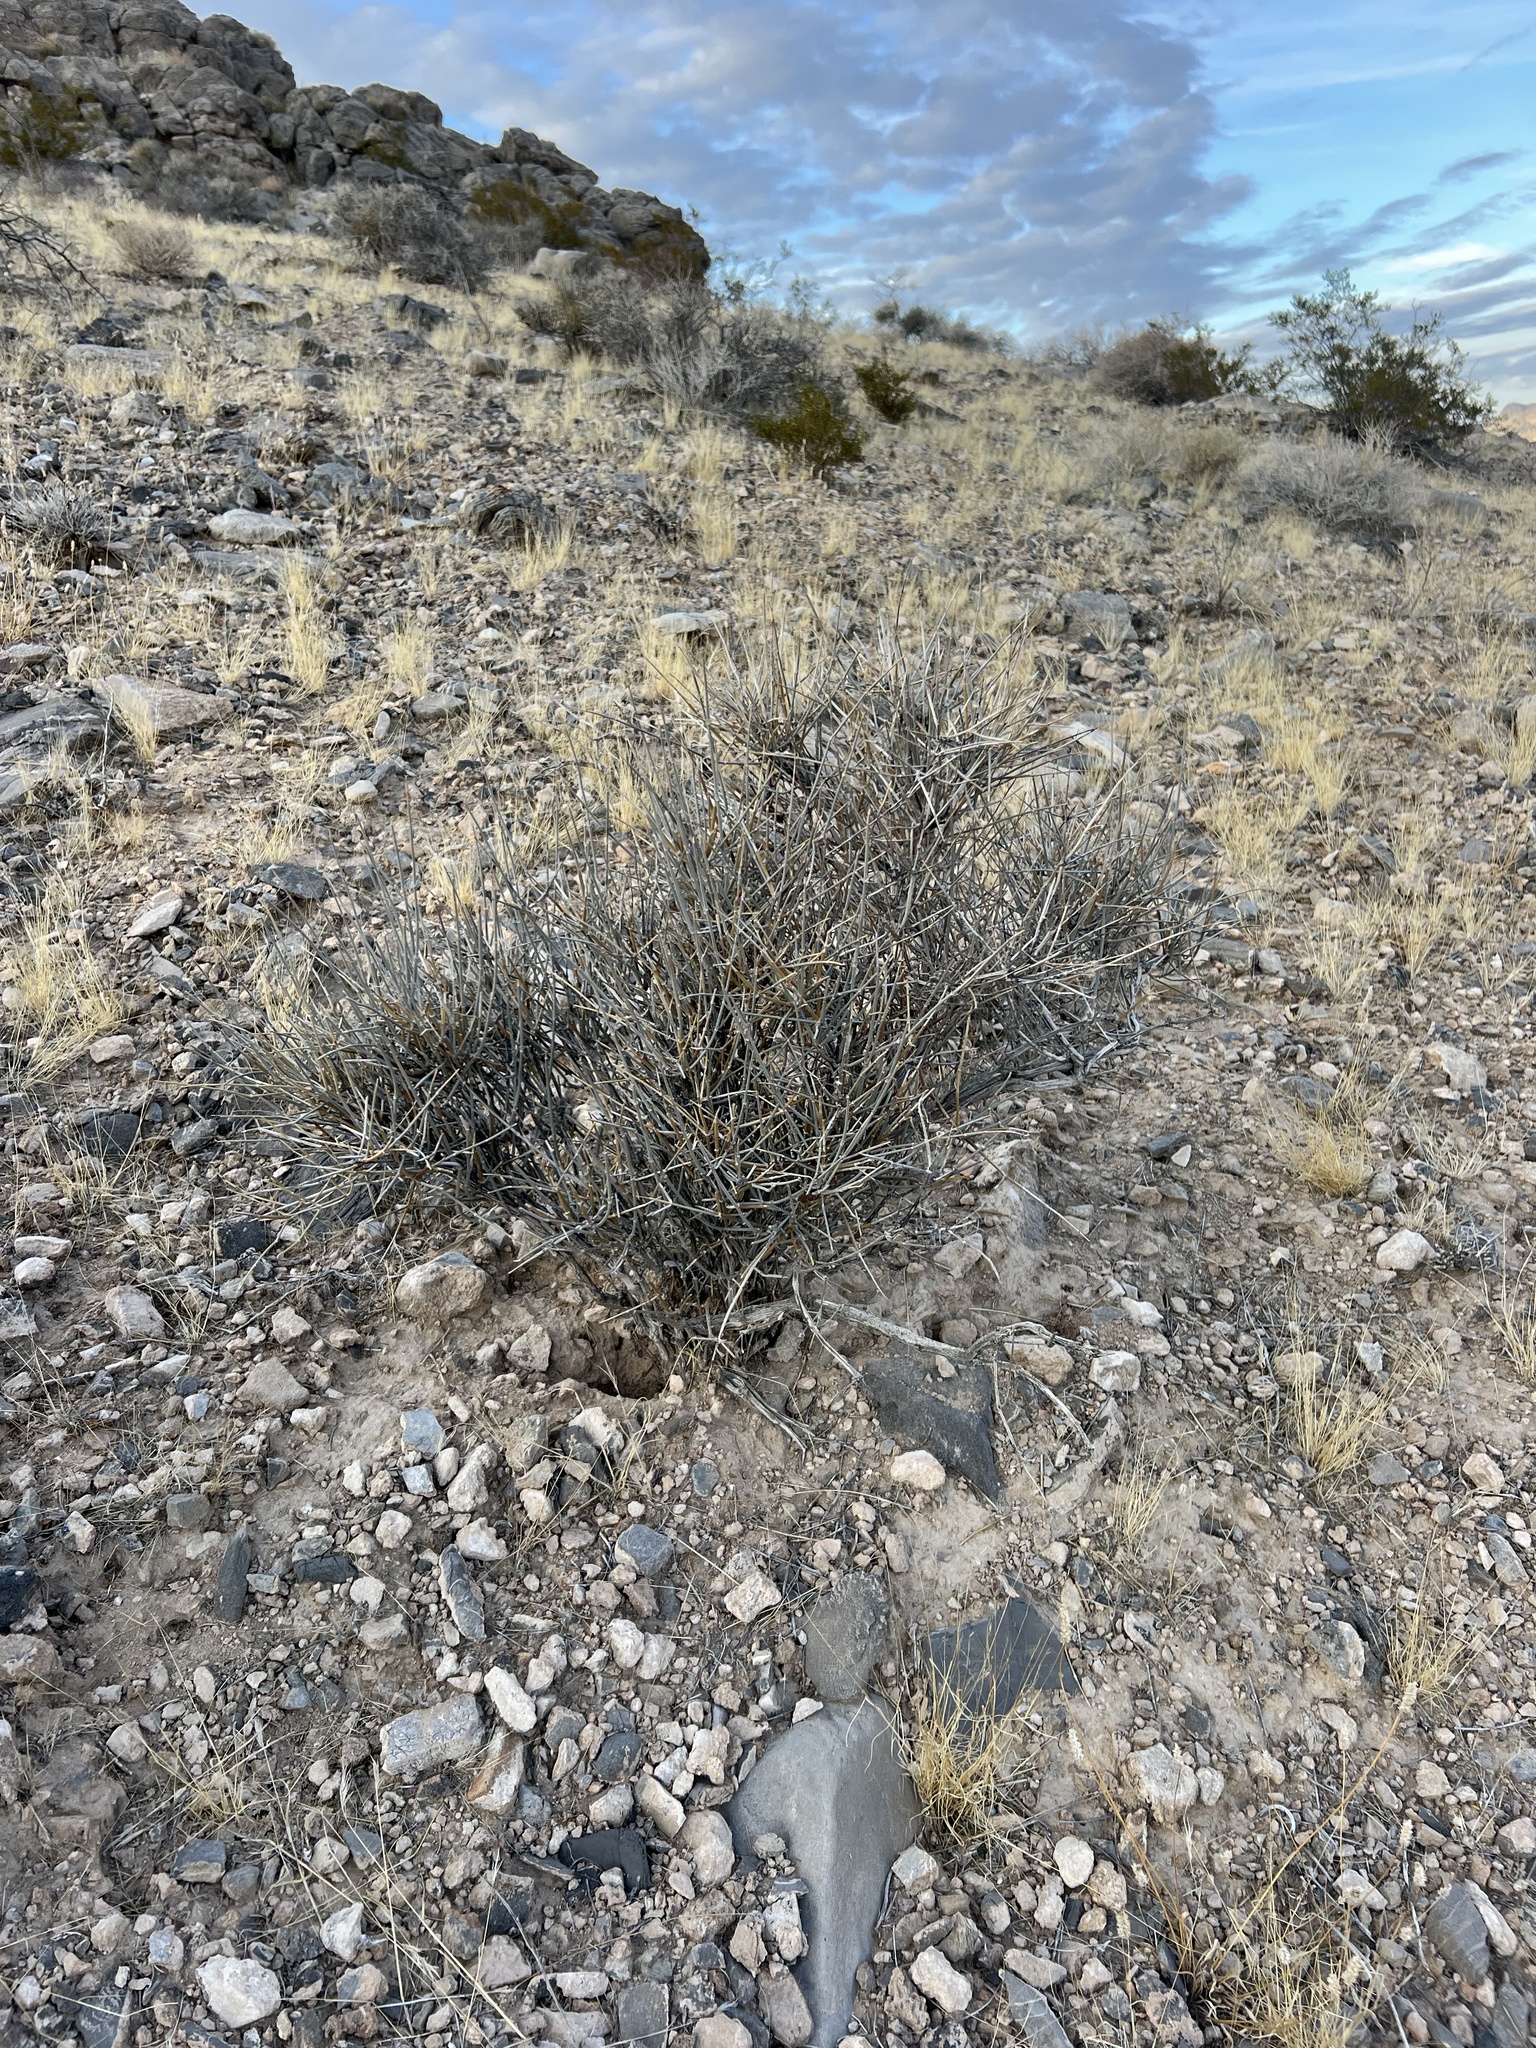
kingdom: Plantae
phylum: Tracheophyta
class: Gnetopsida
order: Ephedrales
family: Ephedraceae
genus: Ephedra
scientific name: Ephedra nevadensis
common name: Gray ephedra
